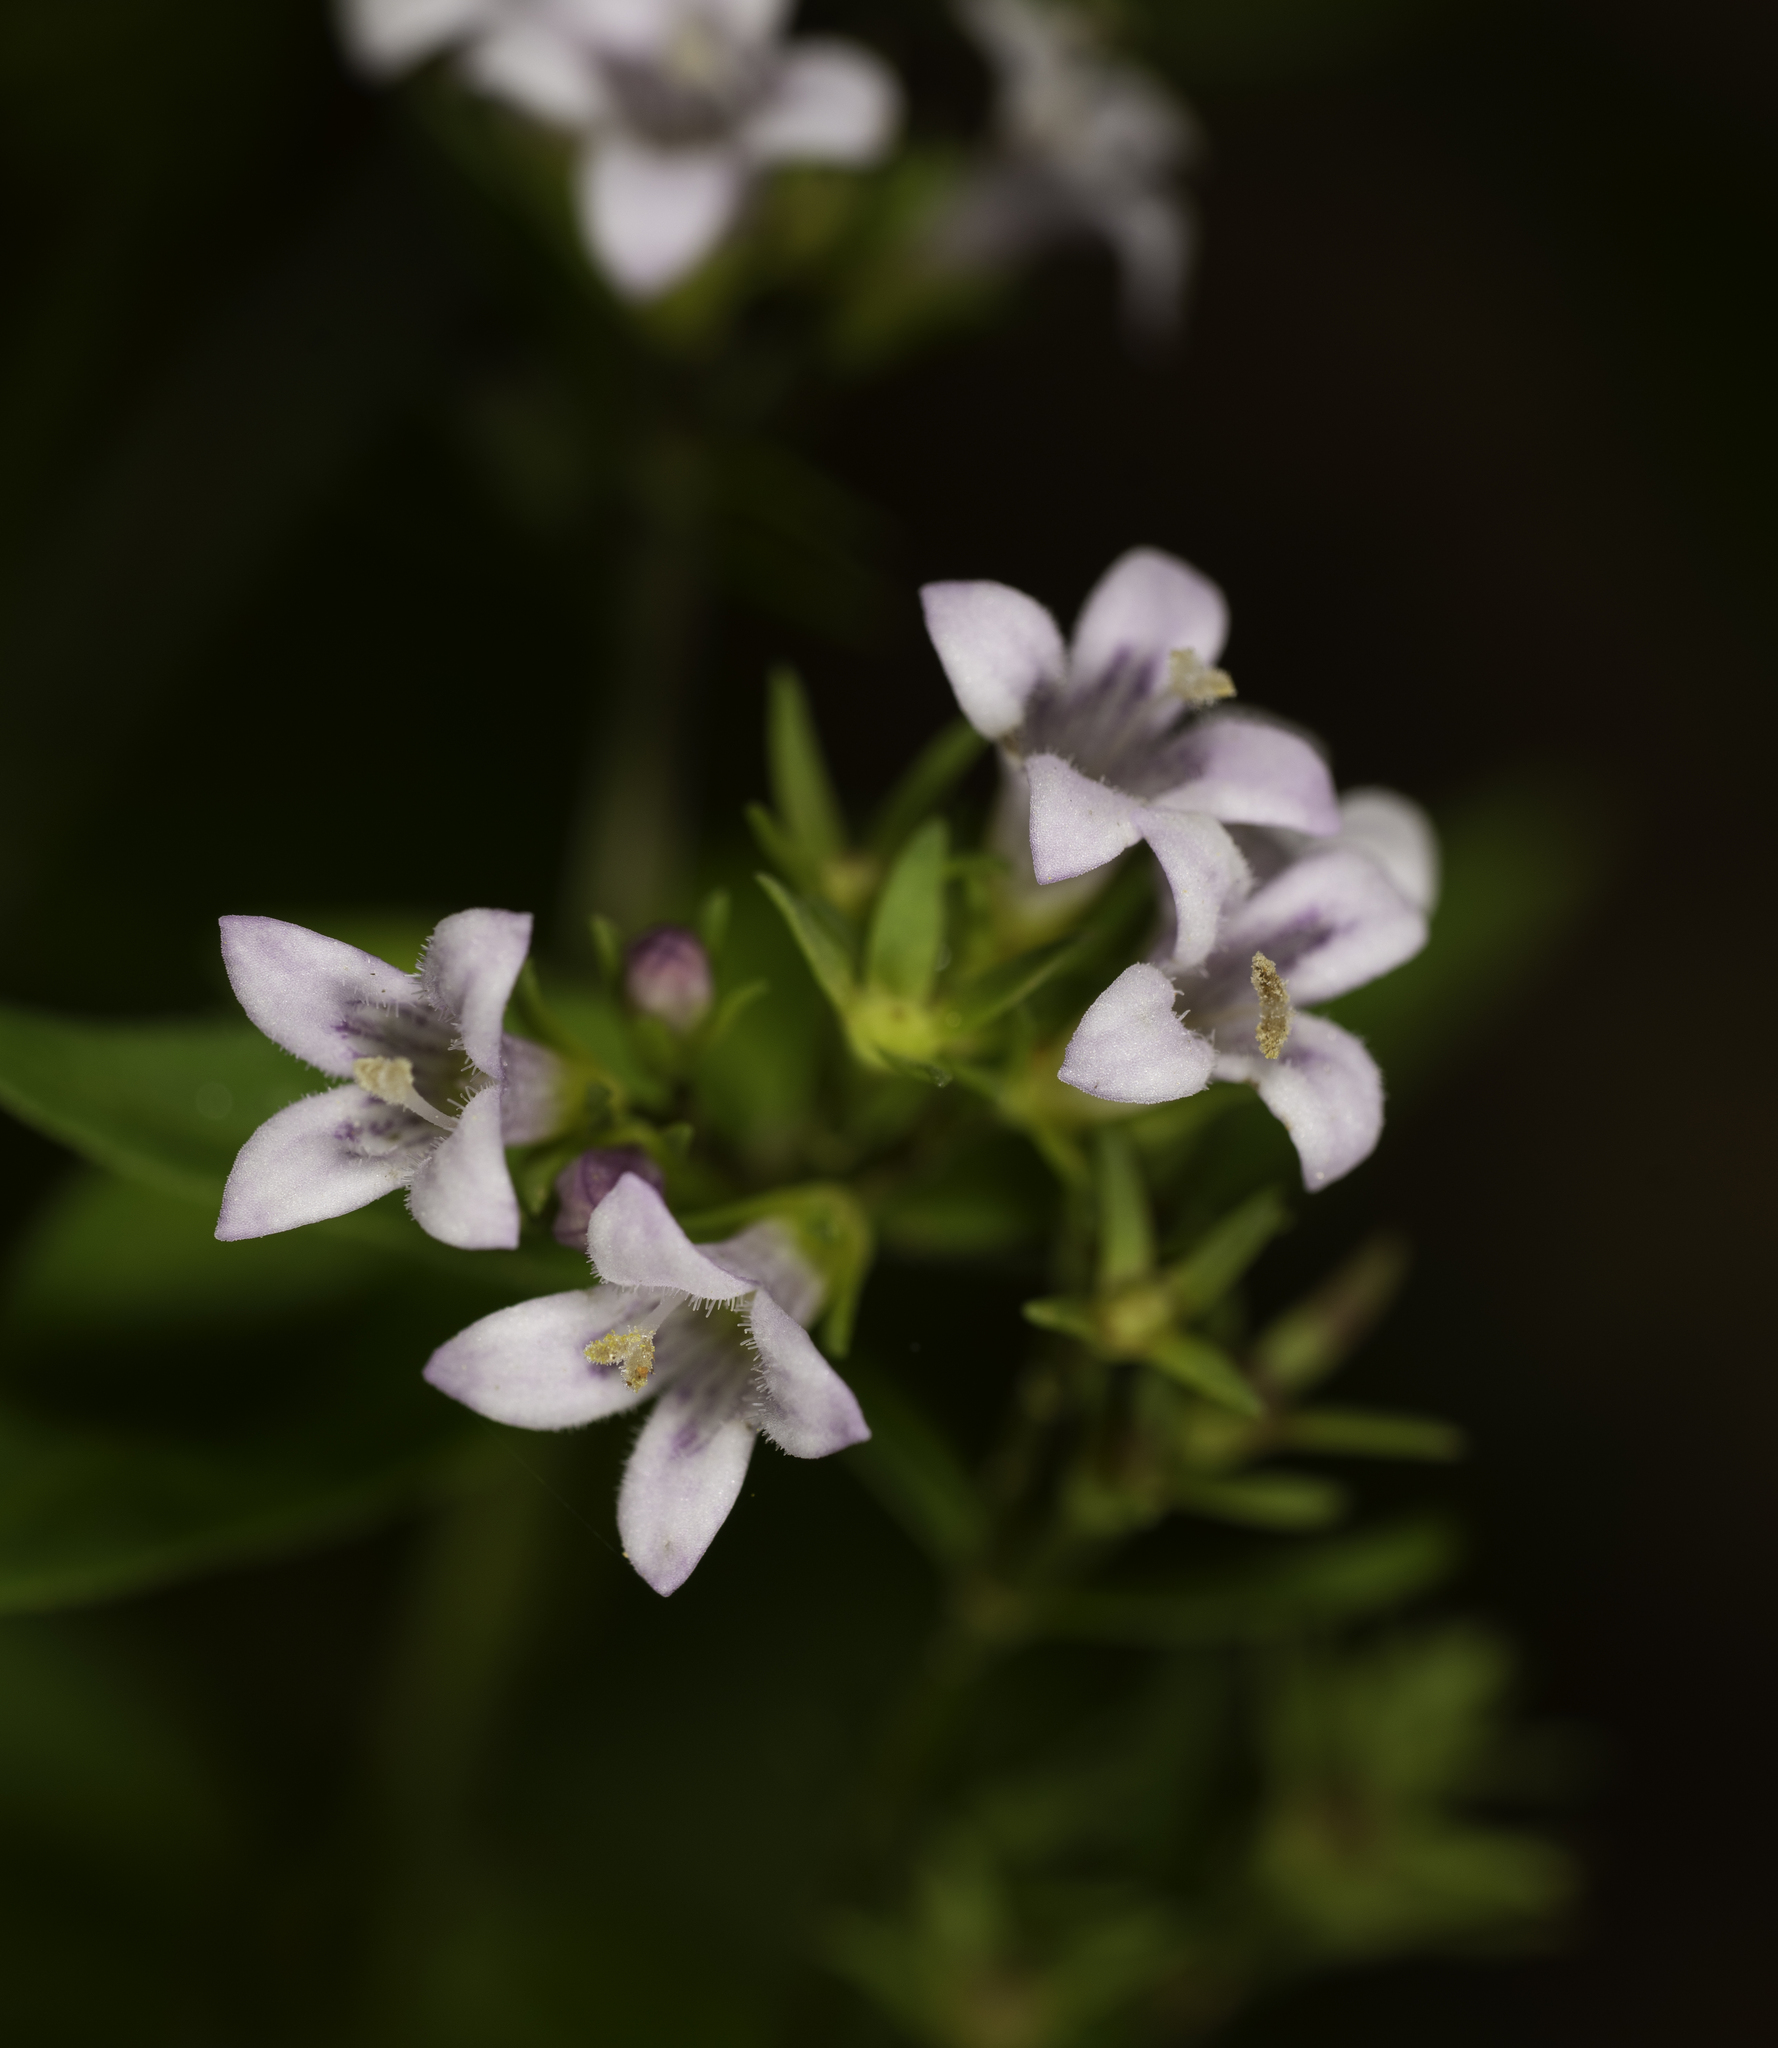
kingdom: Plantae
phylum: Tracheophyta
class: Magnoliopsida
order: Gentianales
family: Rubiaceae
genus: Houstonia
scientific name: Houstonia purpurea
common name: Summer bluet
